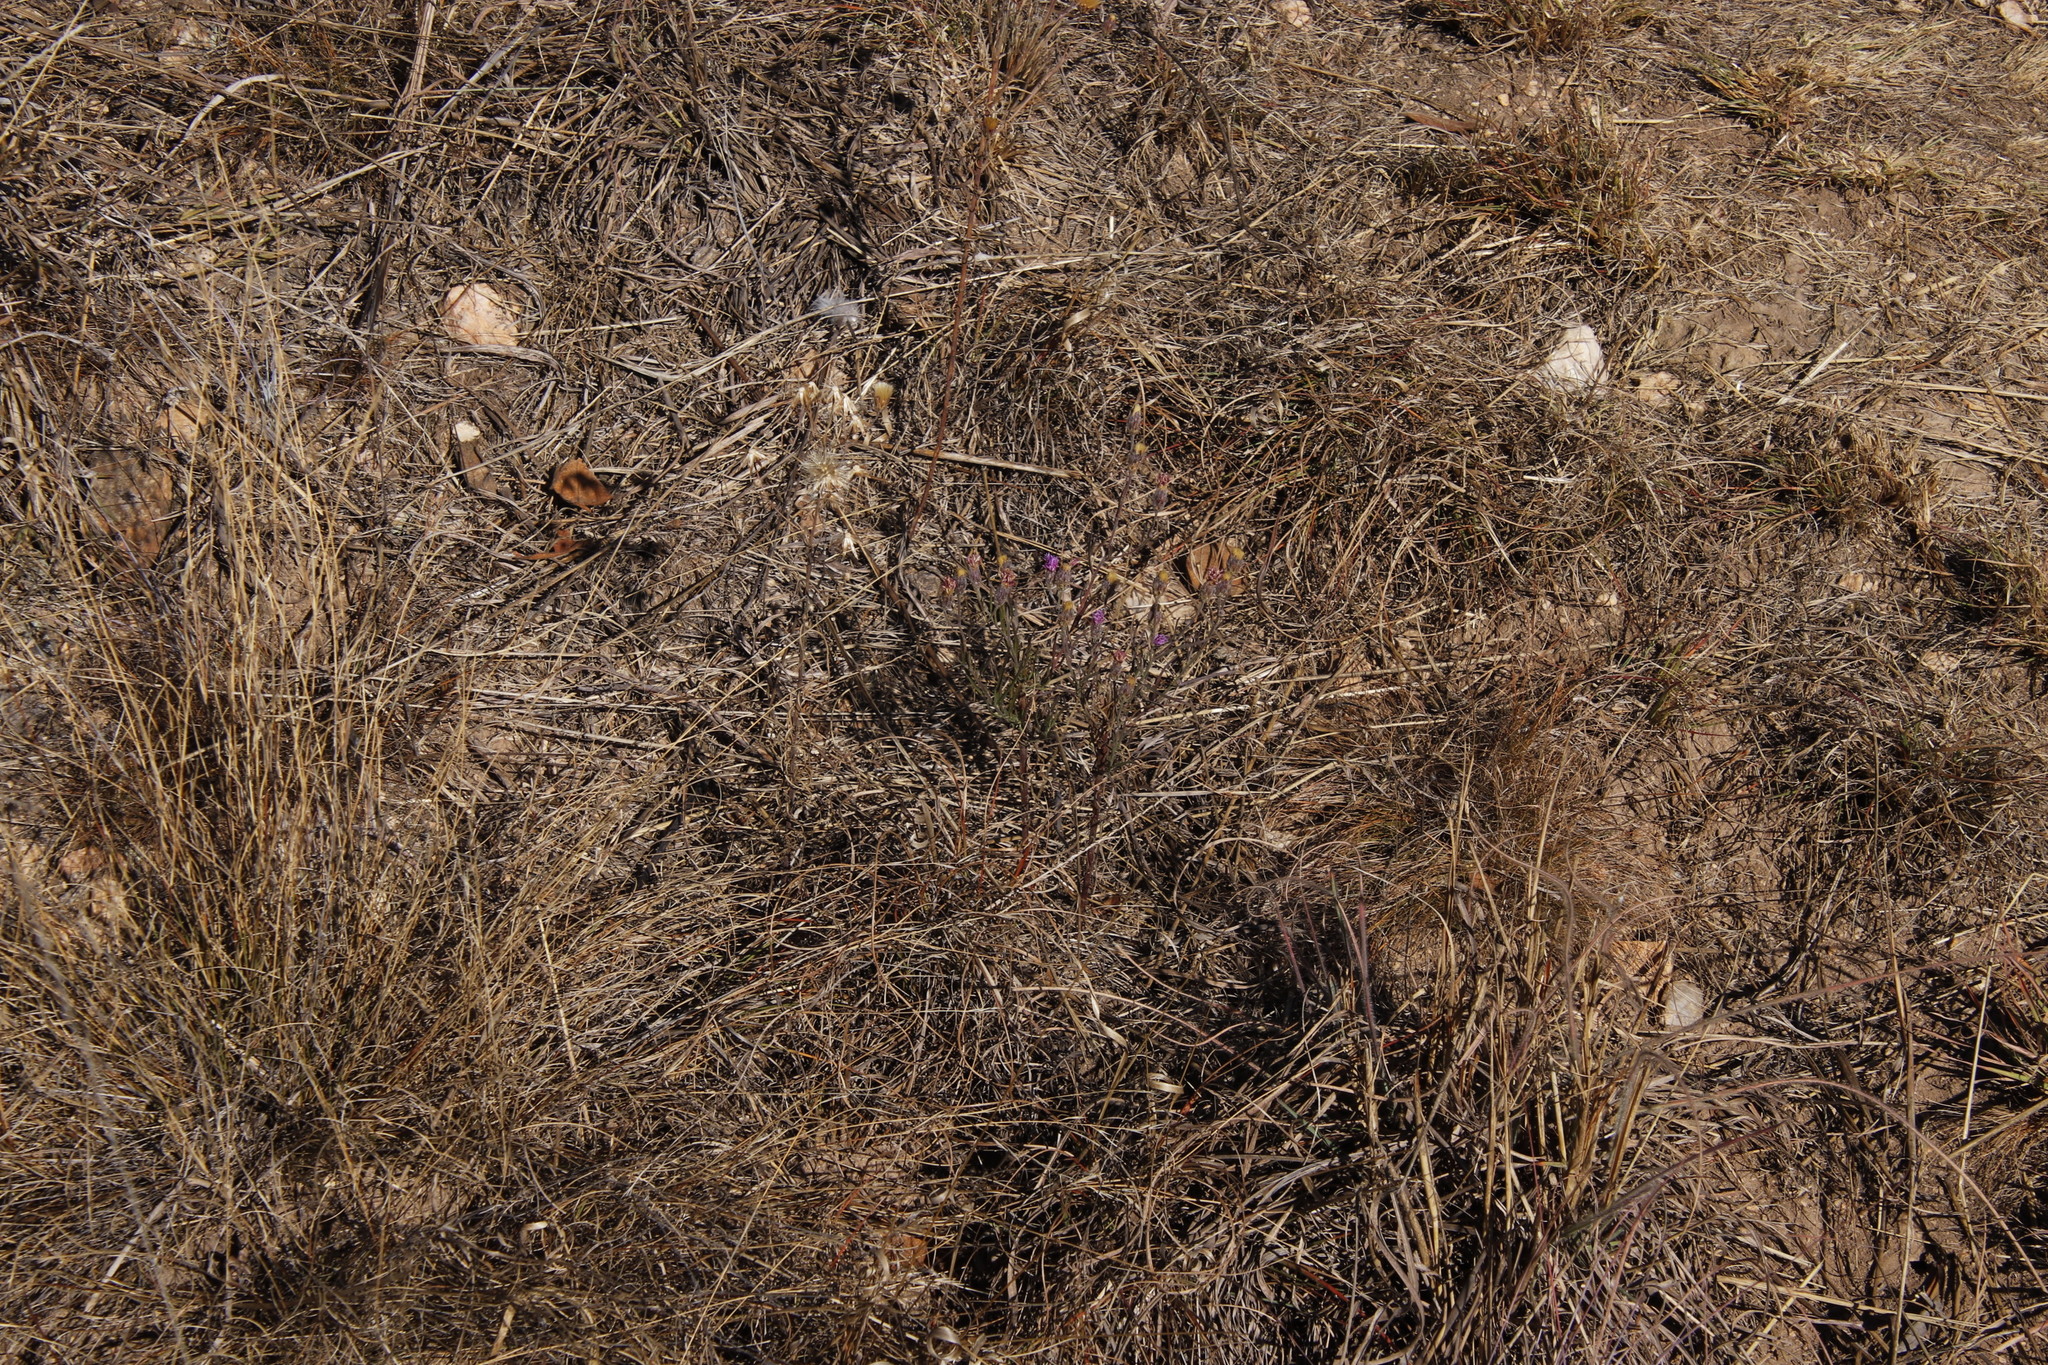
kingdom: Plantae
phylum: Tracheophyta
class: Magnoliopsida
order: Asterales
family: Asteraceae
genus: Crystallopollen
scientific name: Crystallopollen angustifolium
